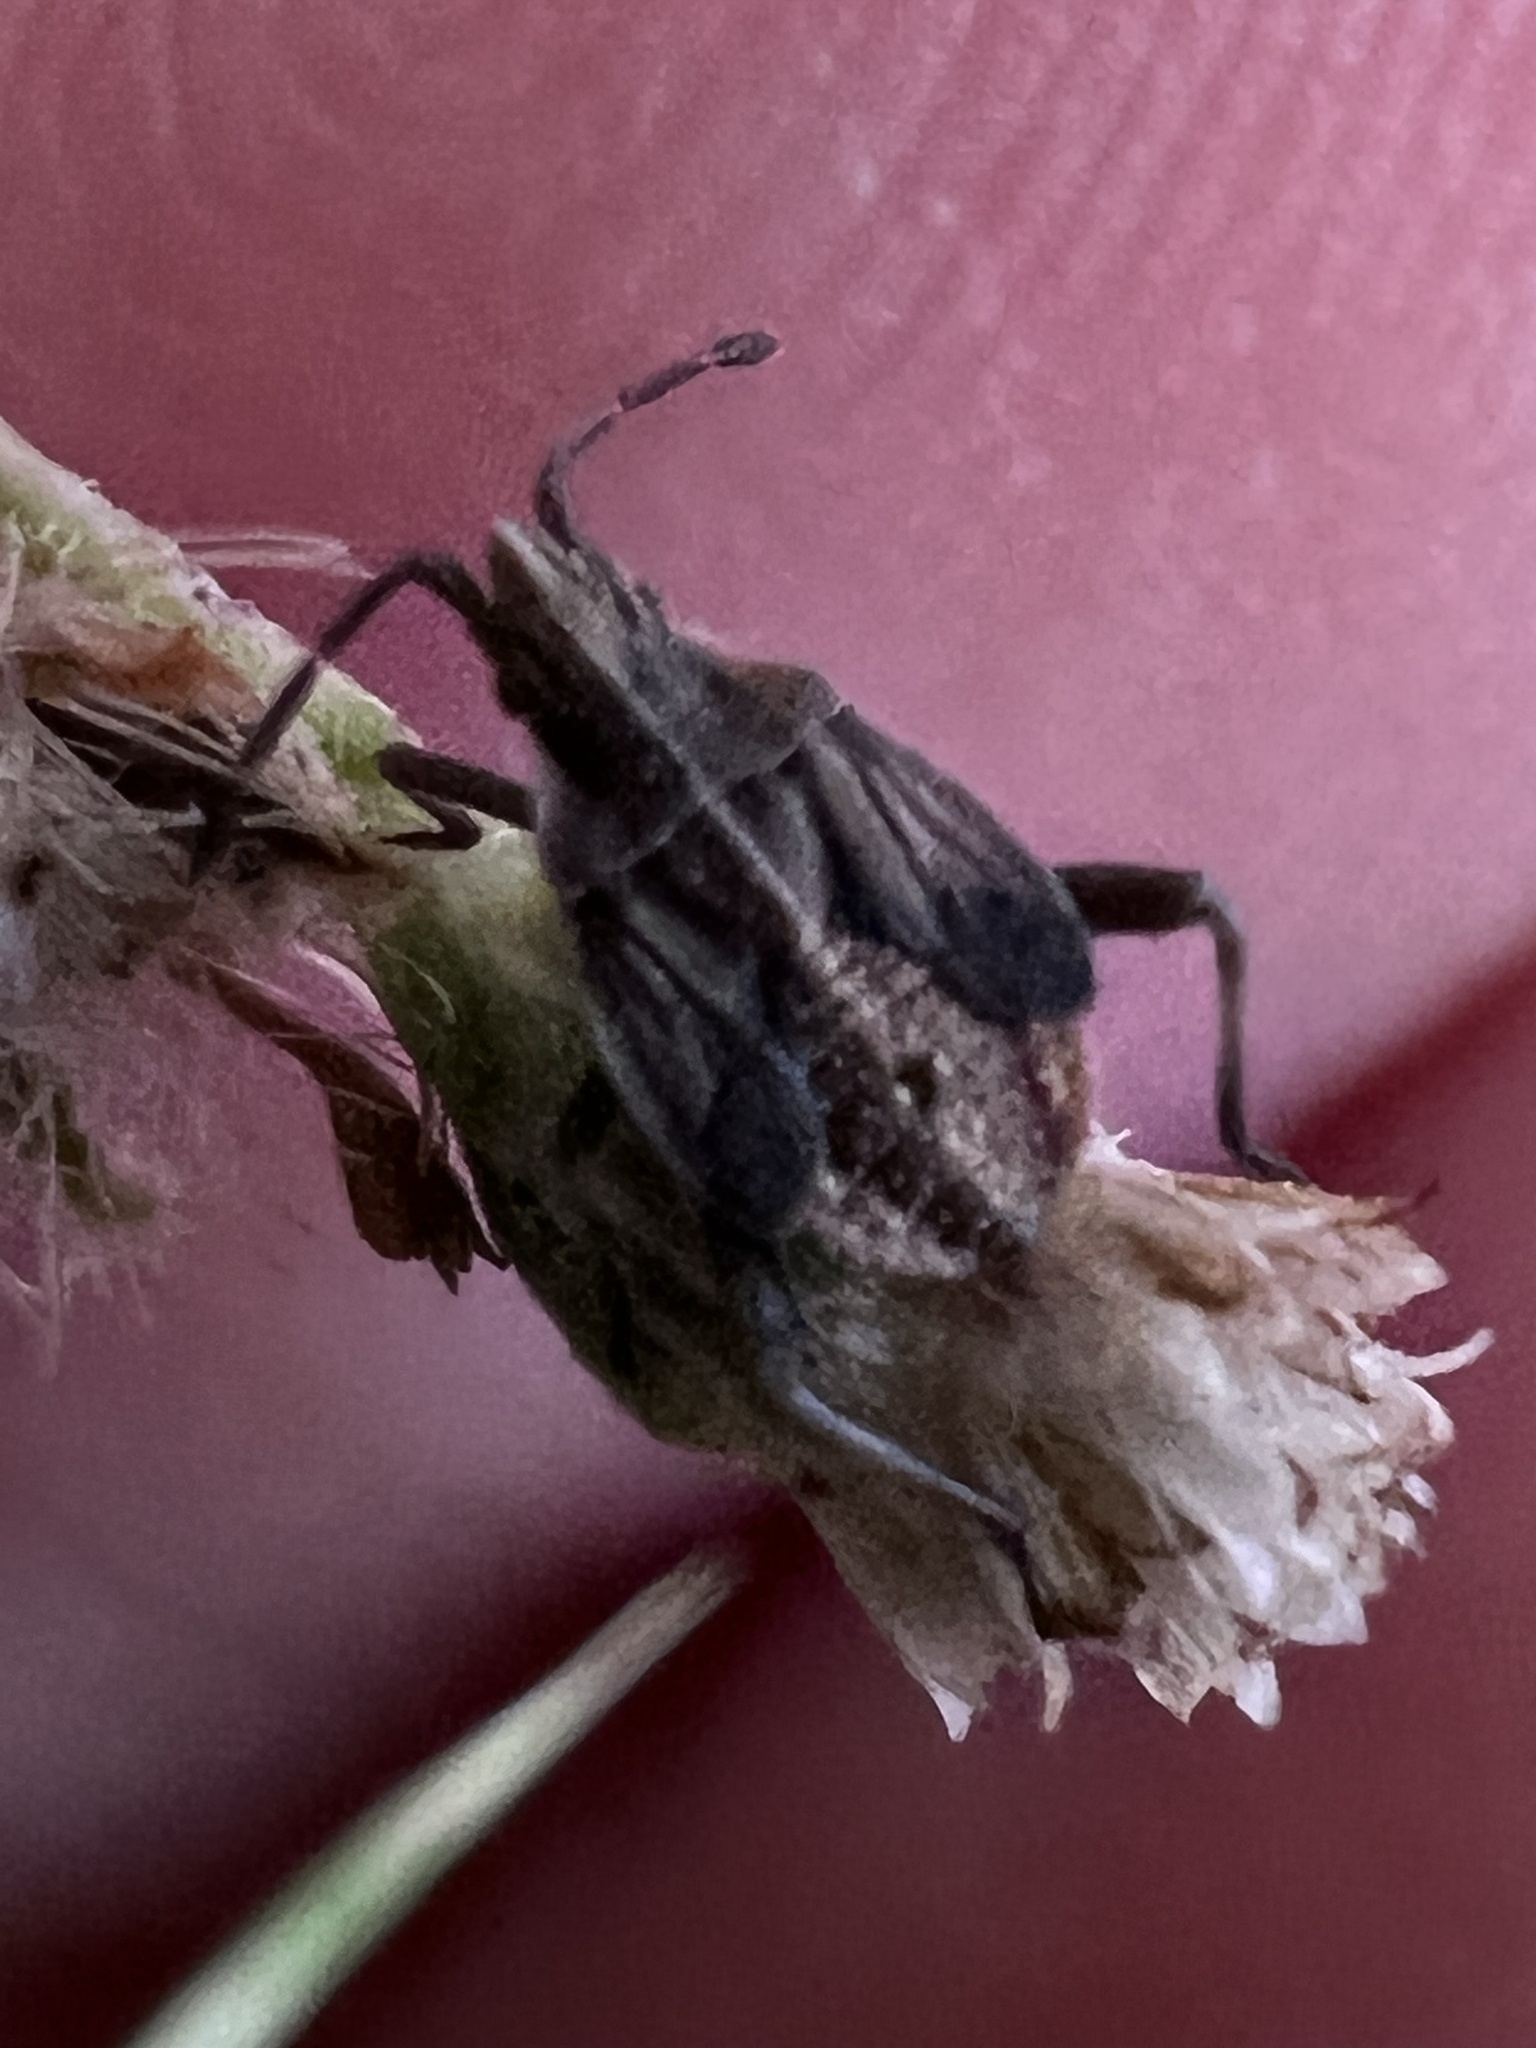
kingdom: Animalia
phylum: Arthropoda
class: Insecta
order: Hemiptera
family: Rhopalidae
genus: Harmostes
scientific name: Harmostes fraterculus
